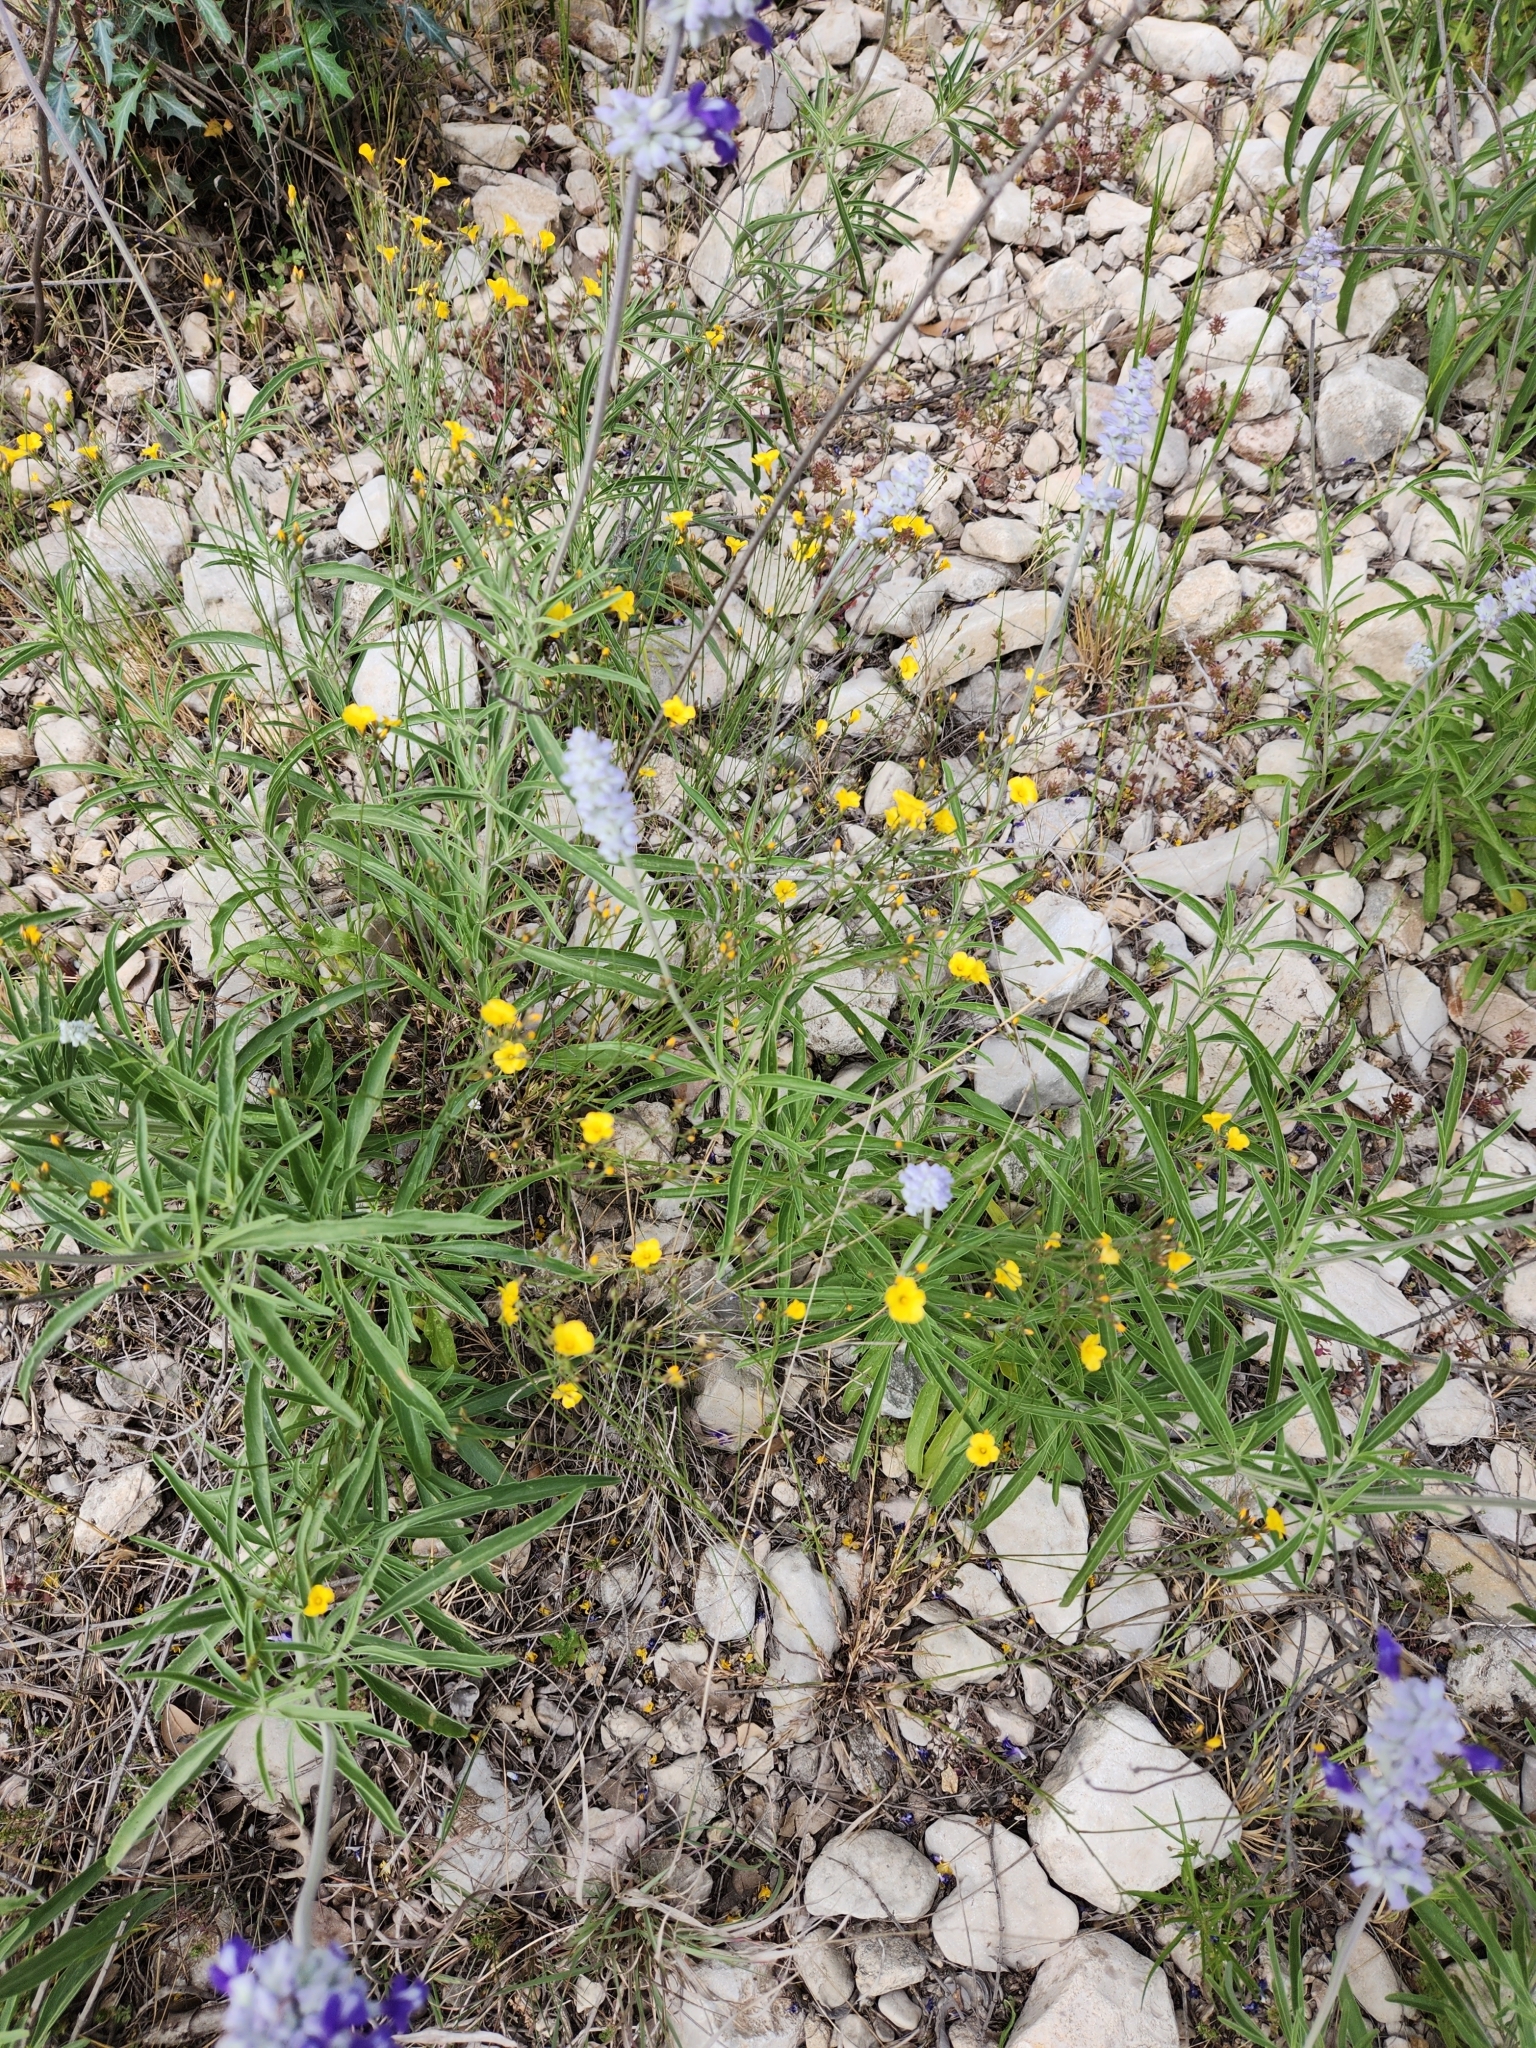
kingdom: Plantae
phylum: Tracheophyta
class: Magnoliopsida
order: Malpighiales
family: Linaceae
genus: Linum
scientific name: Linum rupestre
